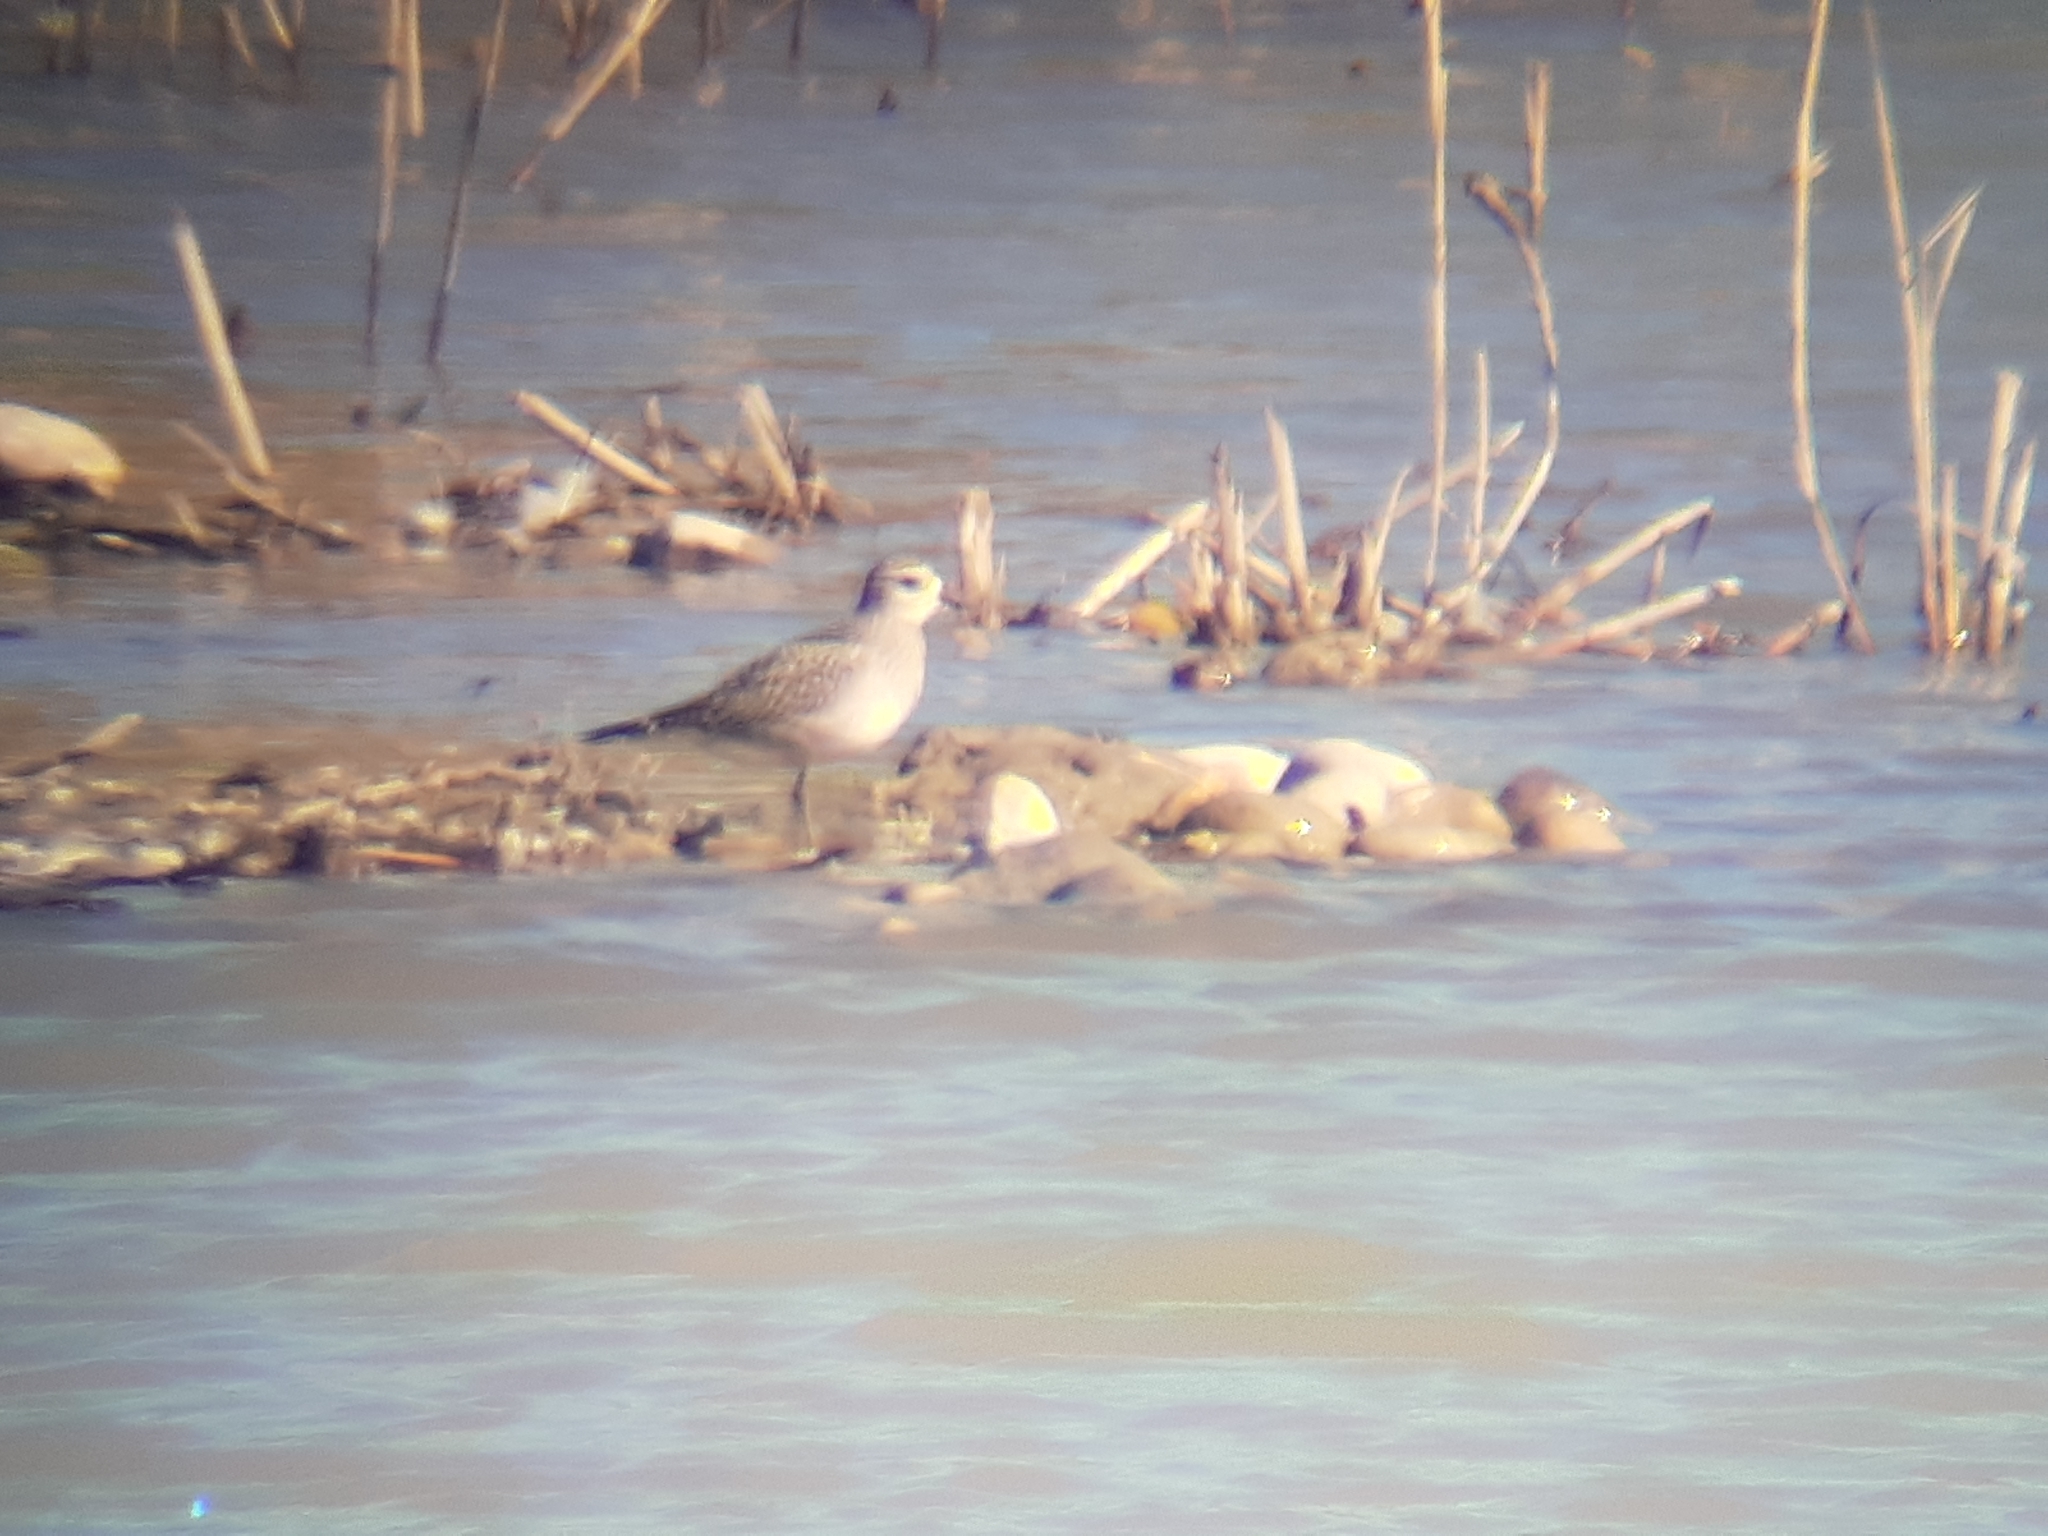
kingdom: Animalia
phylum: Chordata
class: Aves
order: Charadriiformes
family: Charadriidae
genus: Pluvialis
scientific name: Pluvialis dominica
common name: American golden plover
